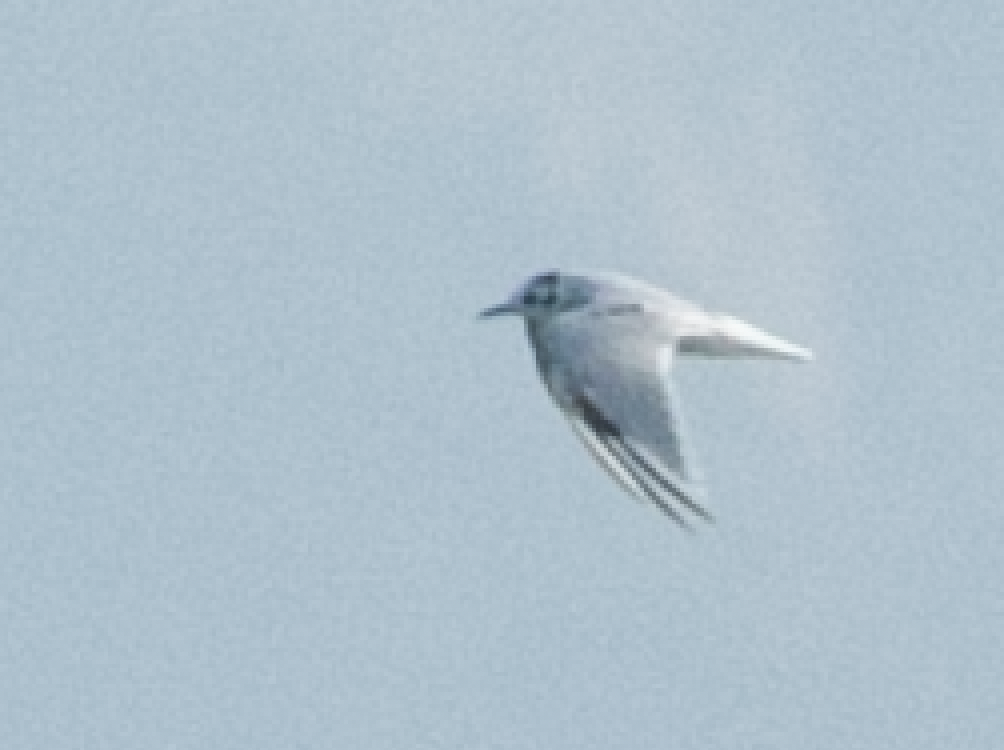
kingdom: Animalia
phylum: Chordata
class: Aves
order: Charadriiformes
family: Laridae
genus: Hydrocoloeus
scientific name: Hydrocoloeus minutus
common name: Little gull
